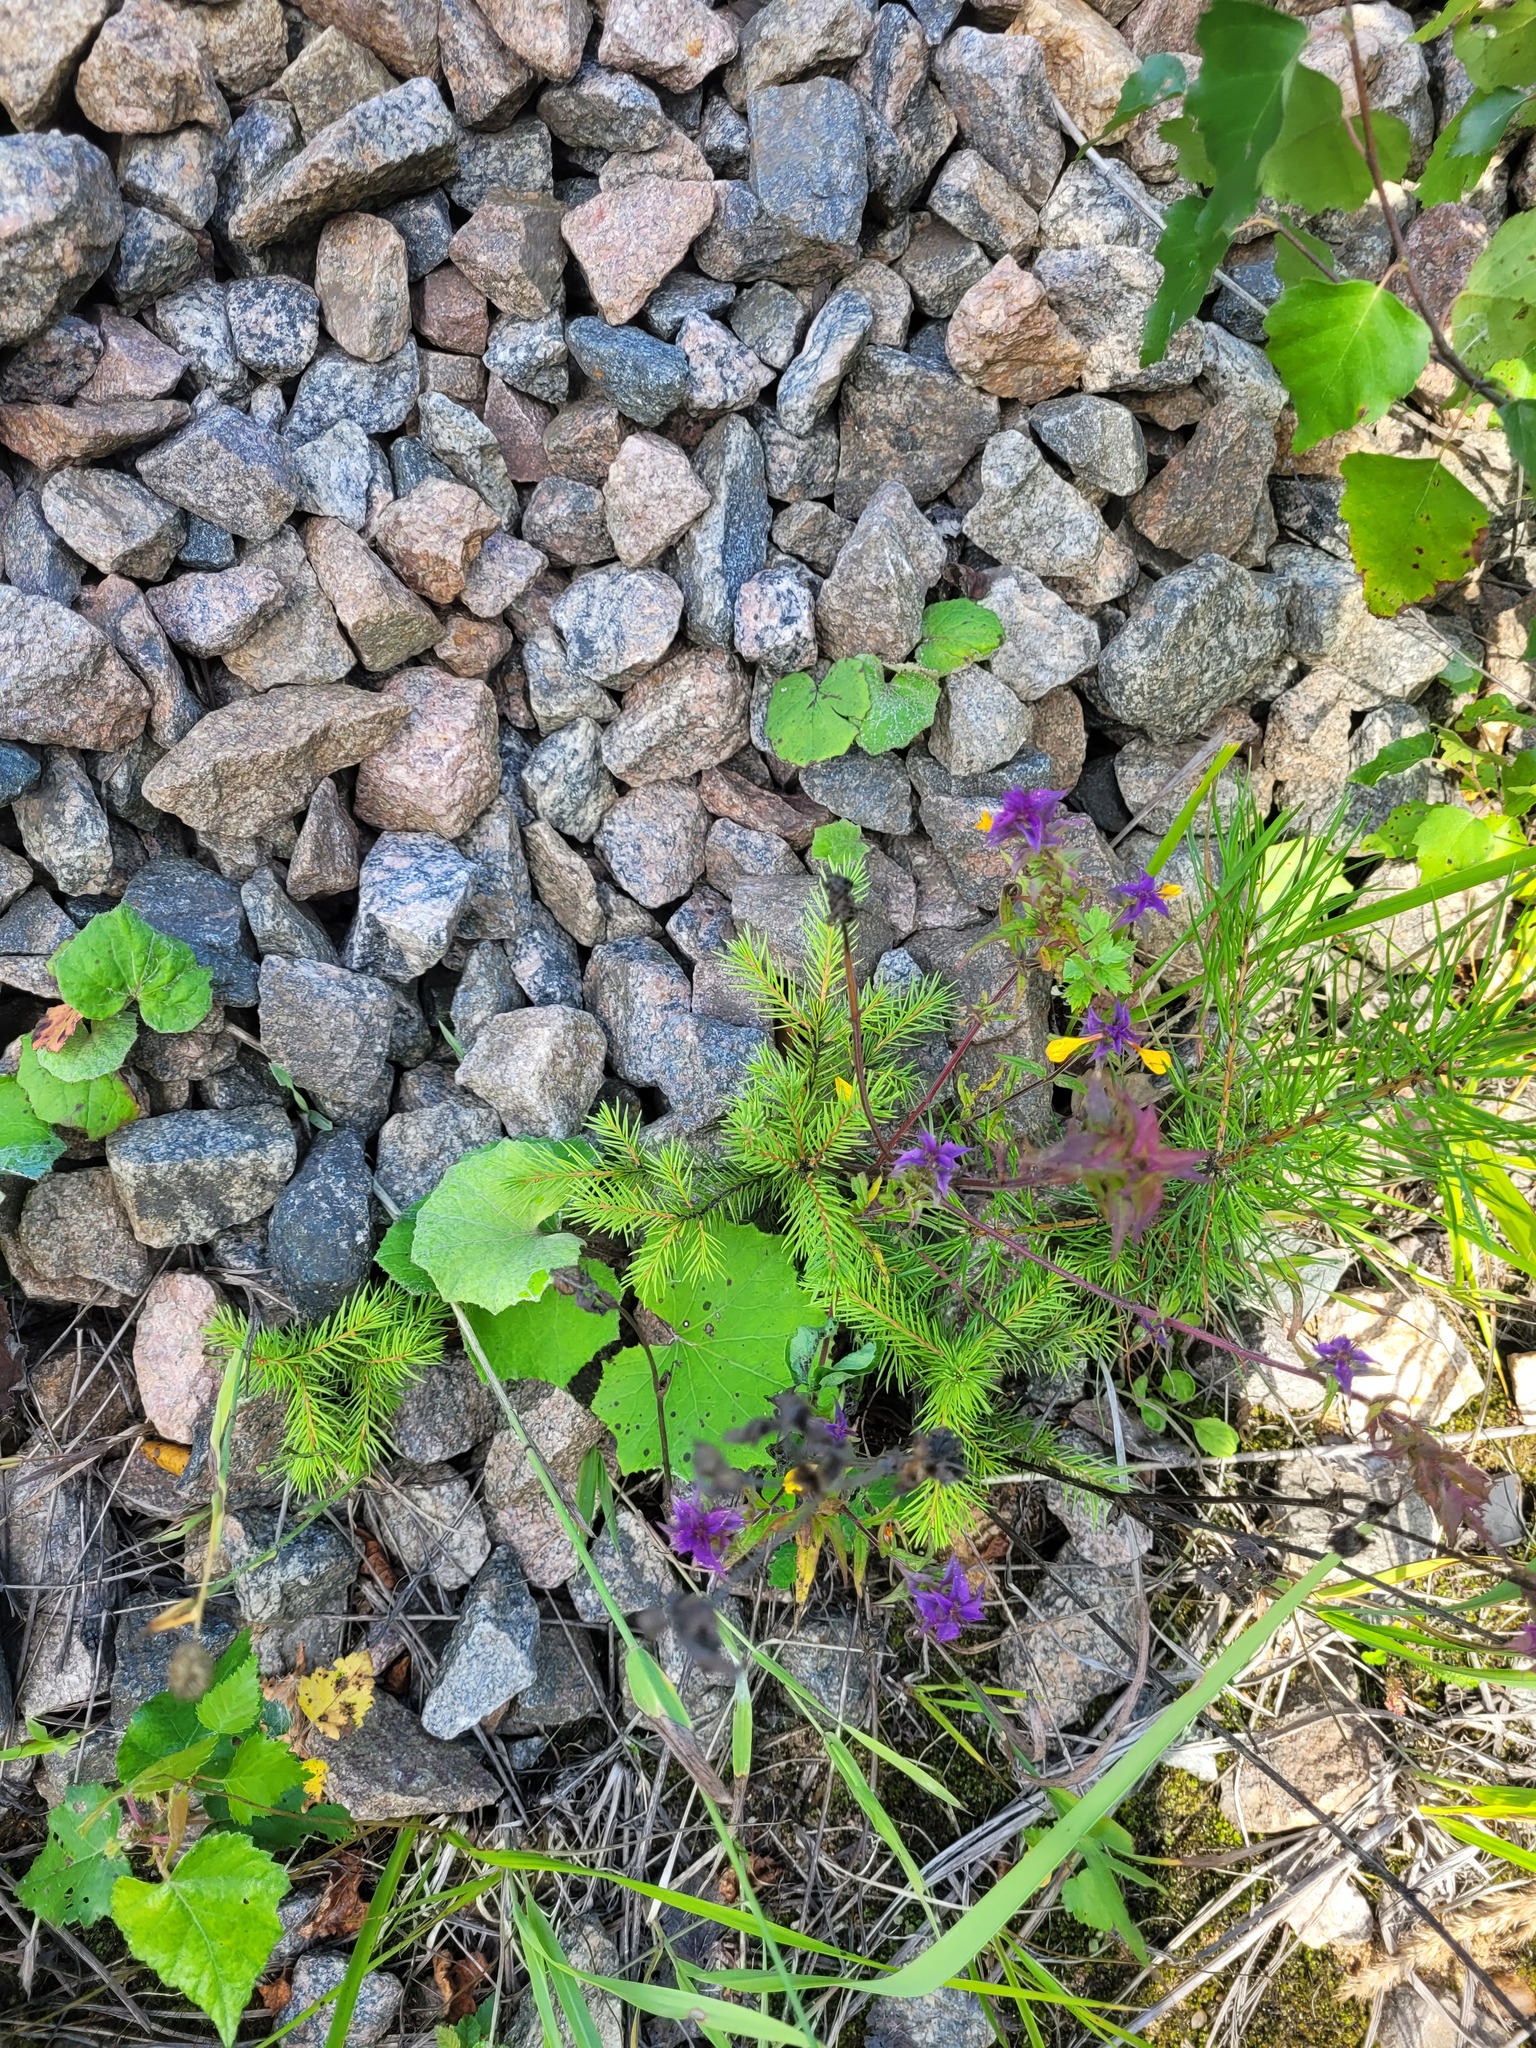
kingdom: Plantae
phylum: Tracheophyta
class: Pinopsida
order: Pinales
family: Pinaceae
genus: Picea
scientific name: Picea abies
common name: Norway spruce
